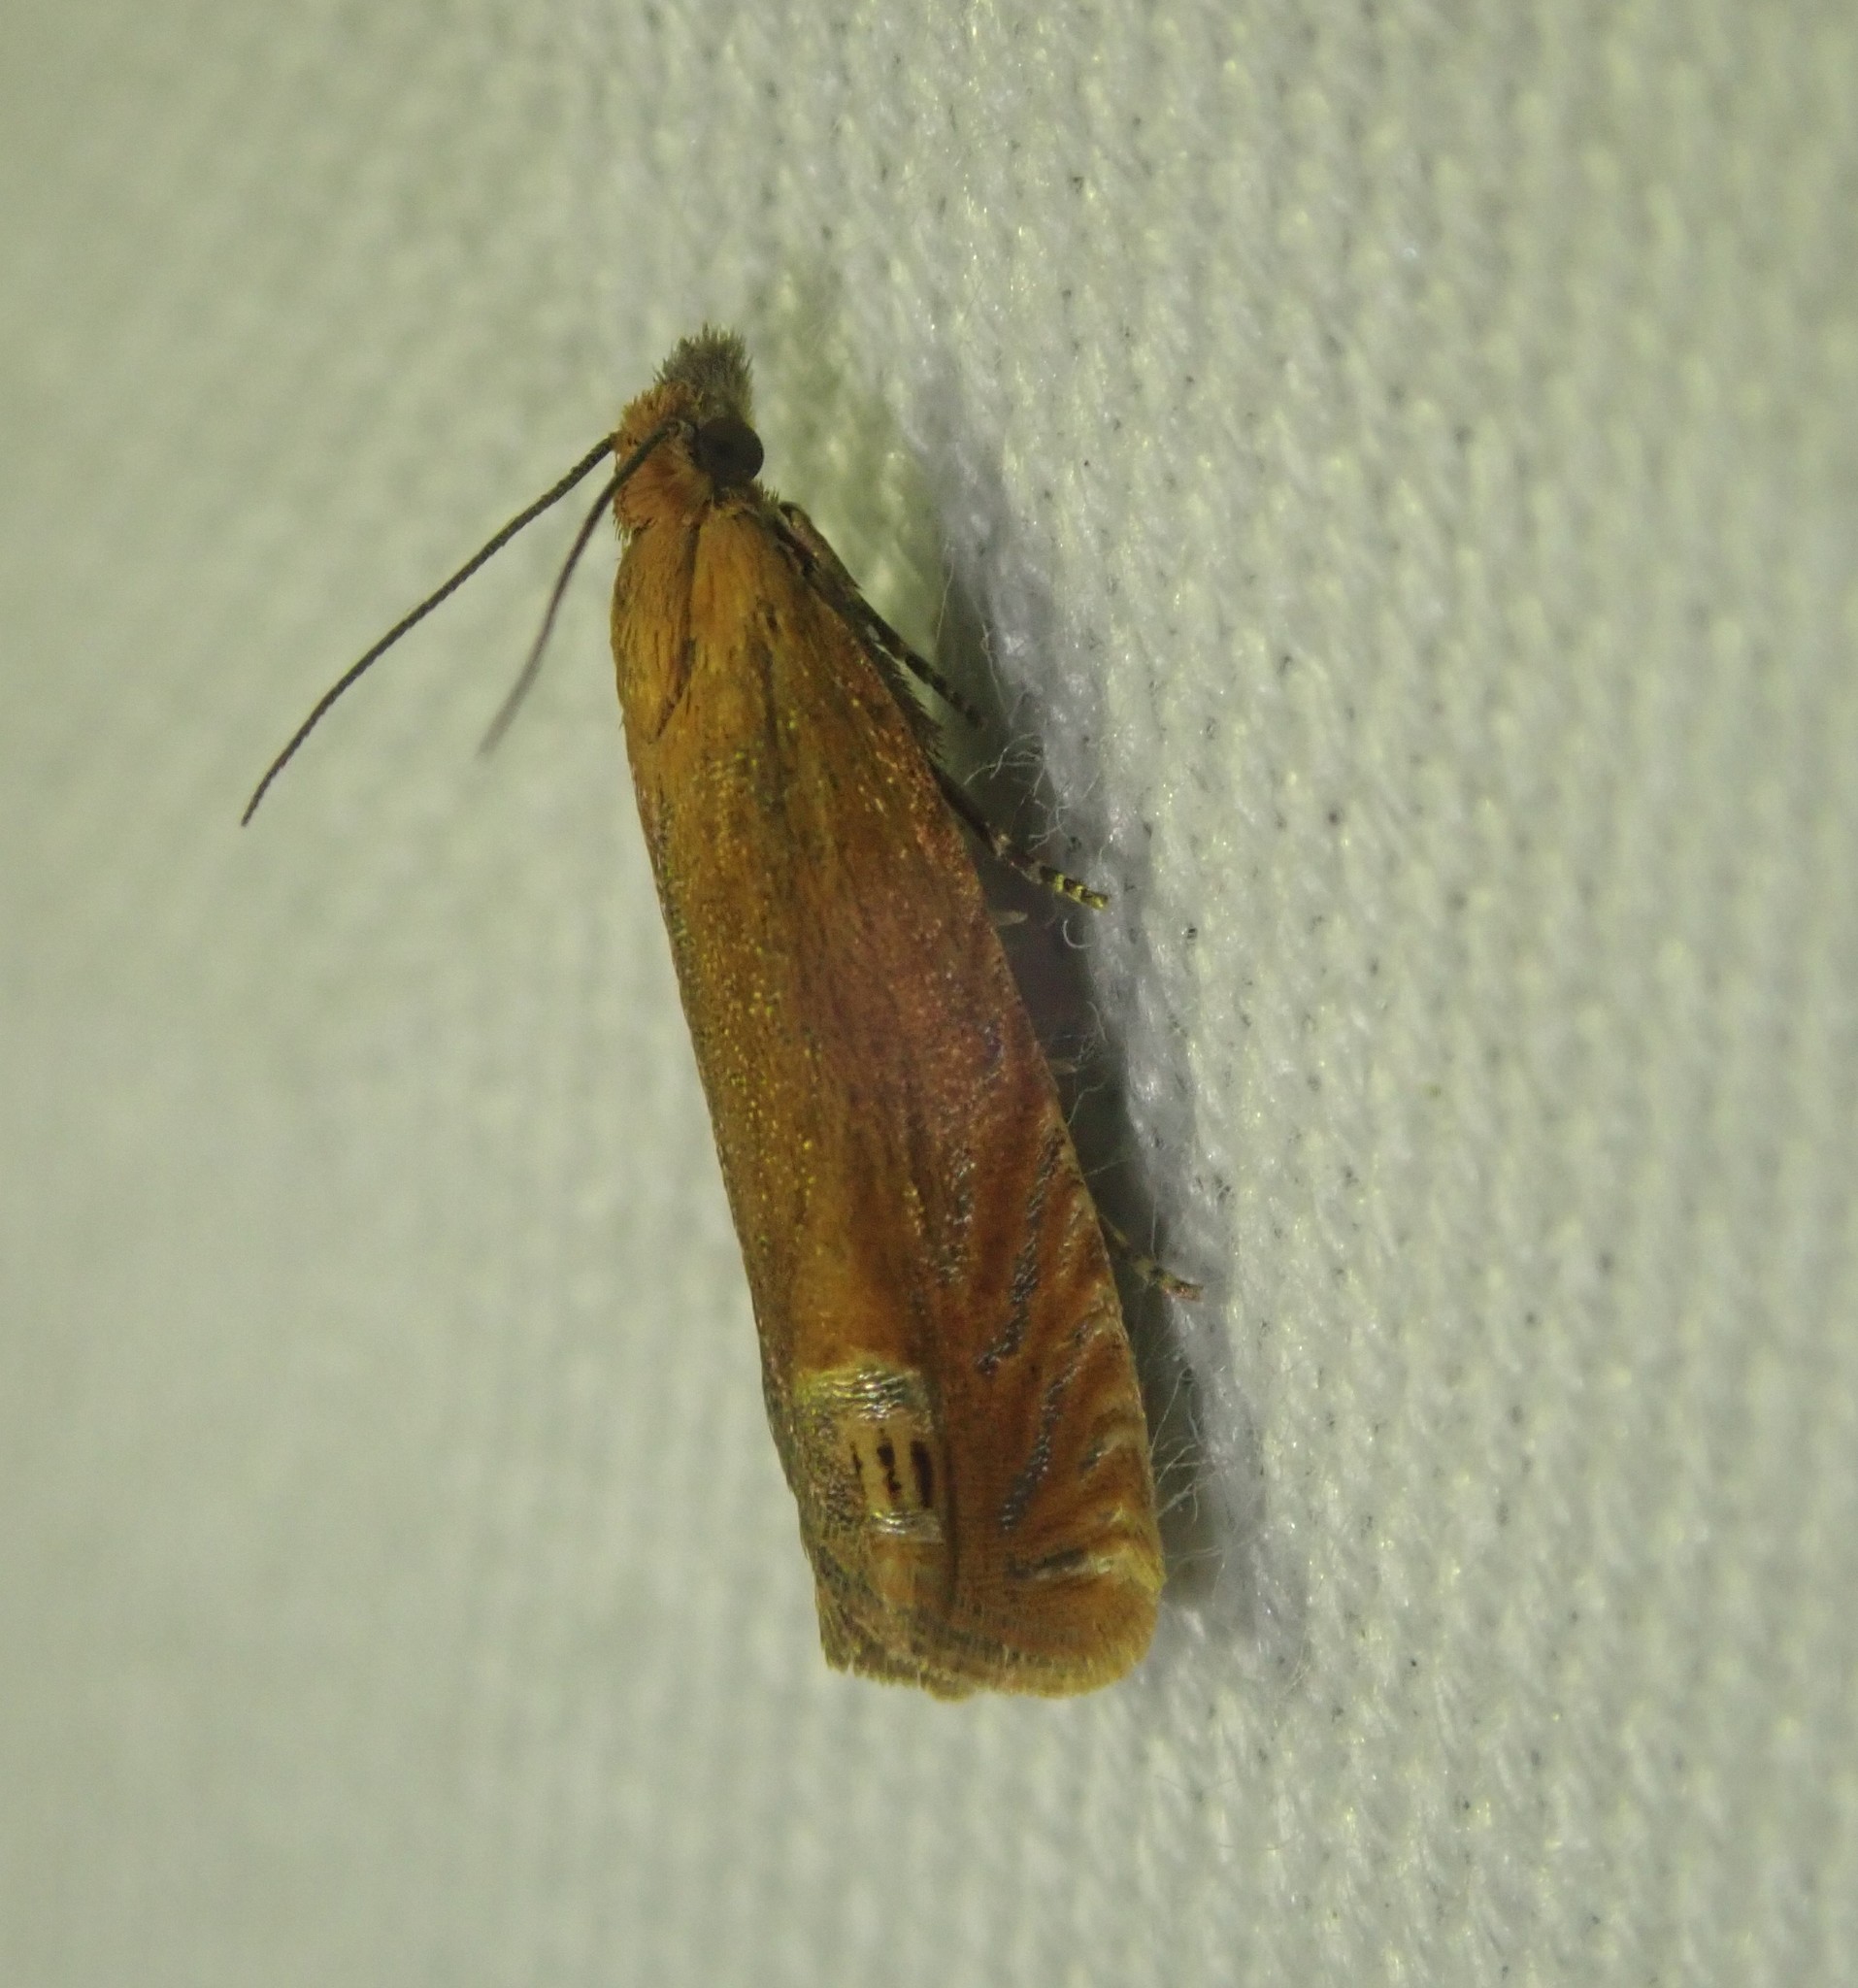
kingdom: Animalia
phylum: Arthropoda
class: Insecta
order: Lepidoptera
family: Tortricidae
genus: Lathronympha
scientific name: Lathronympha strigana
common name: Red piercer
